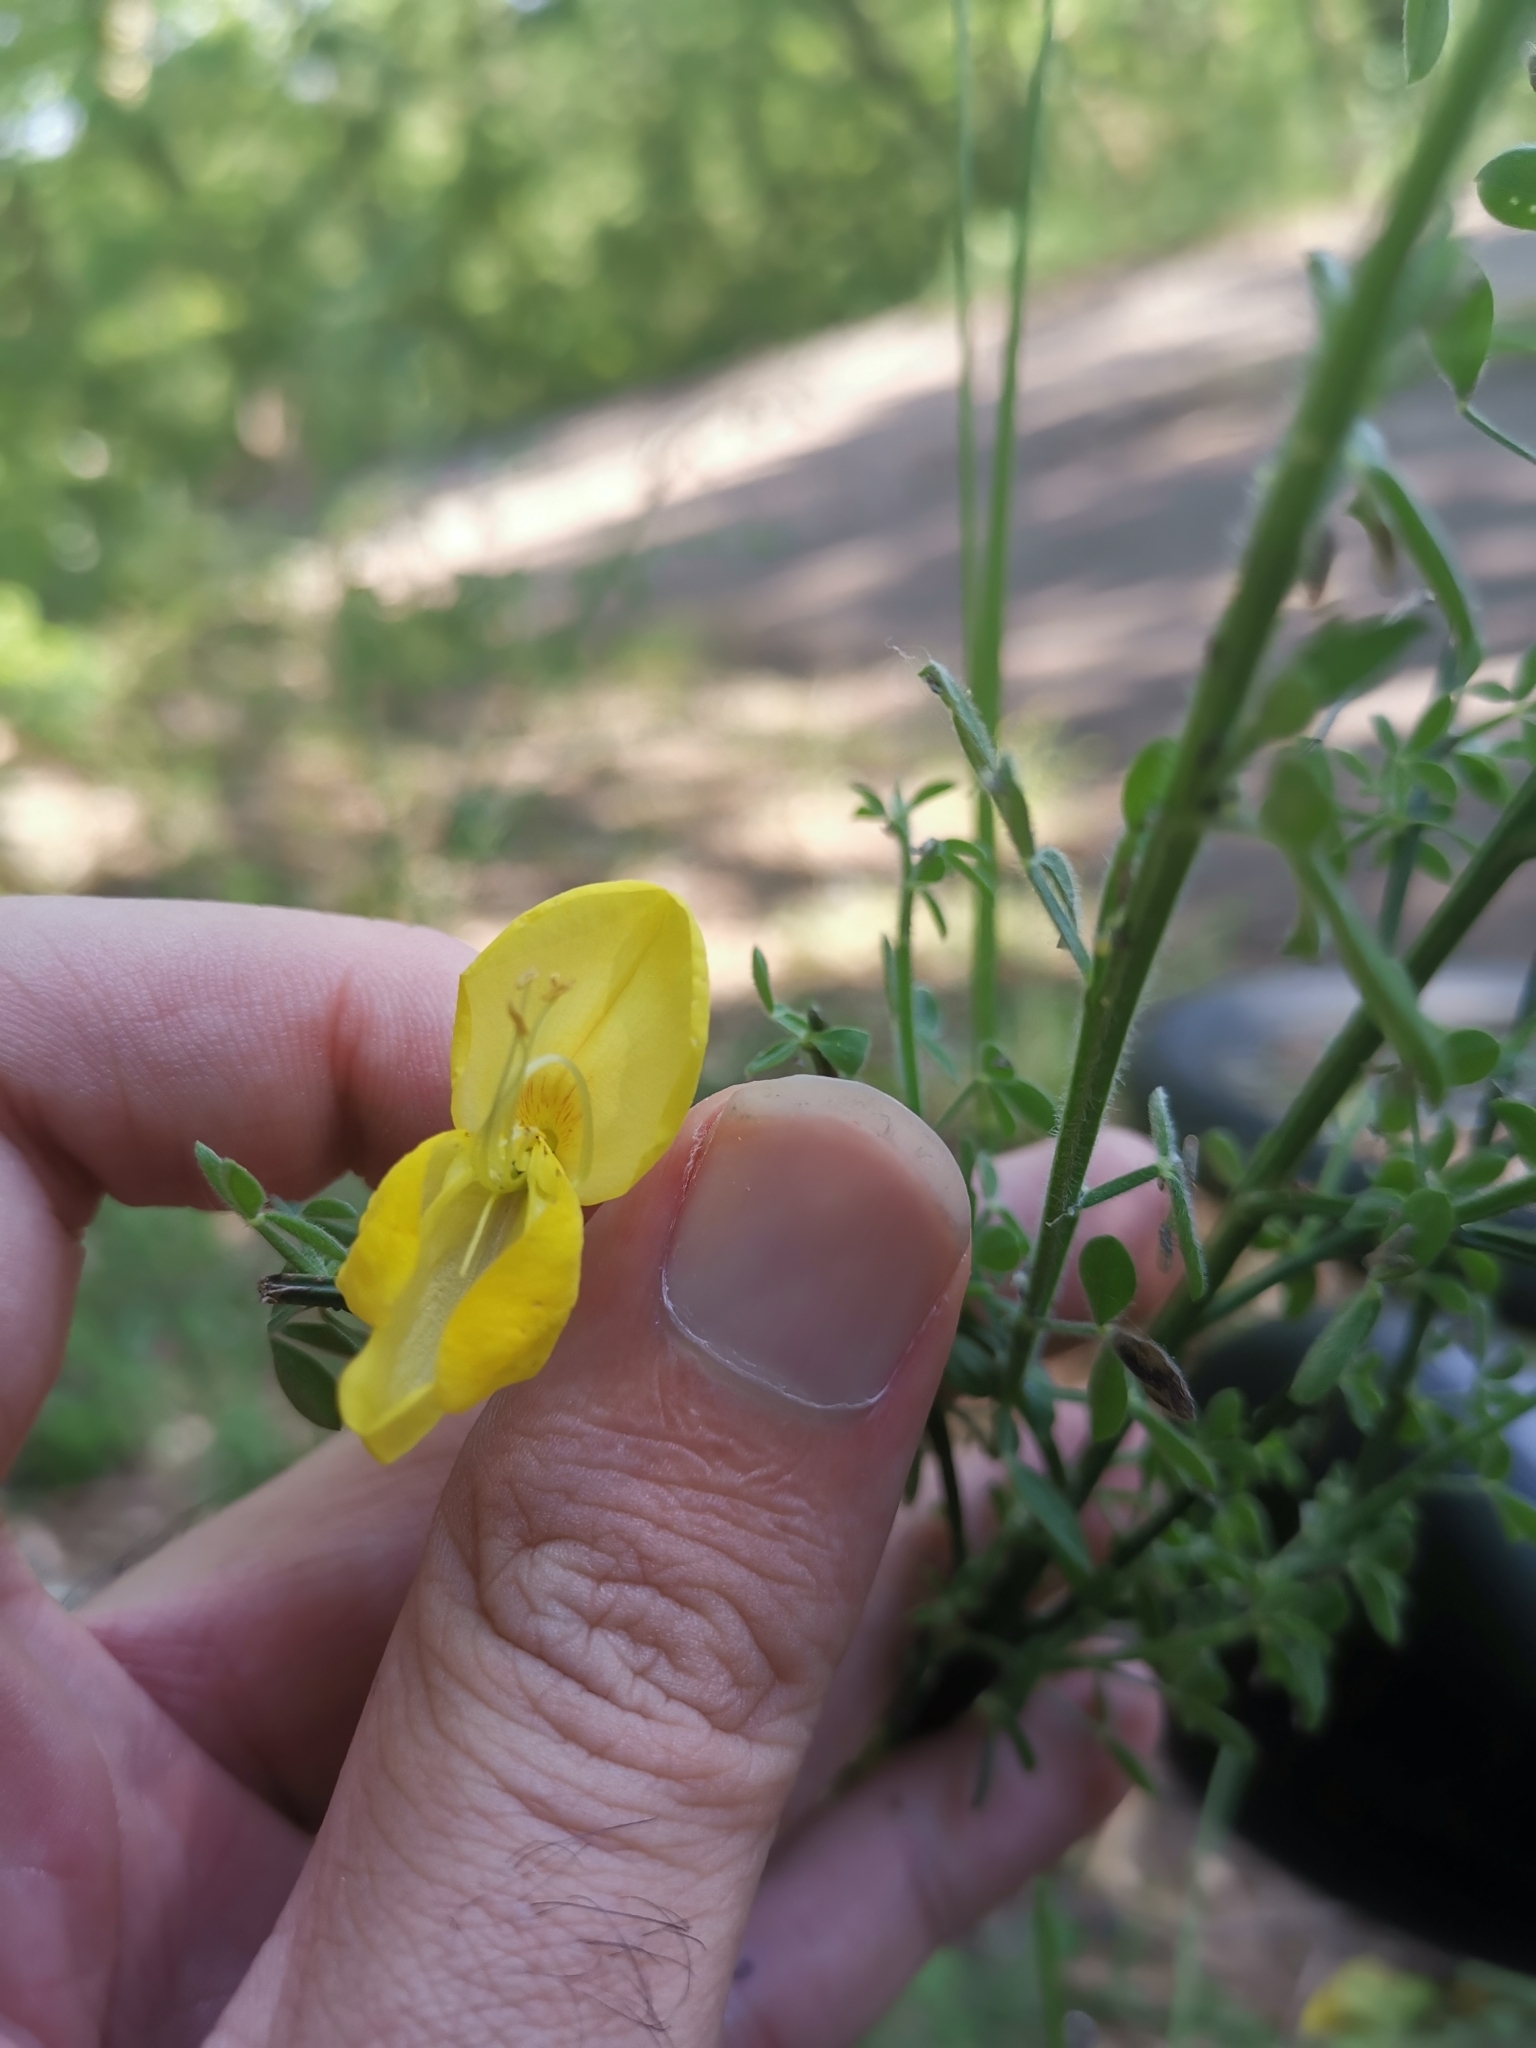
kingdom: Plantae
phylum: Tracheophyta
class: Magnoliopsida
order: Fabales
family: Fabaceae
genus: Cytisus
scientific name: Cytisus scoparius
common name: Scotch broom
